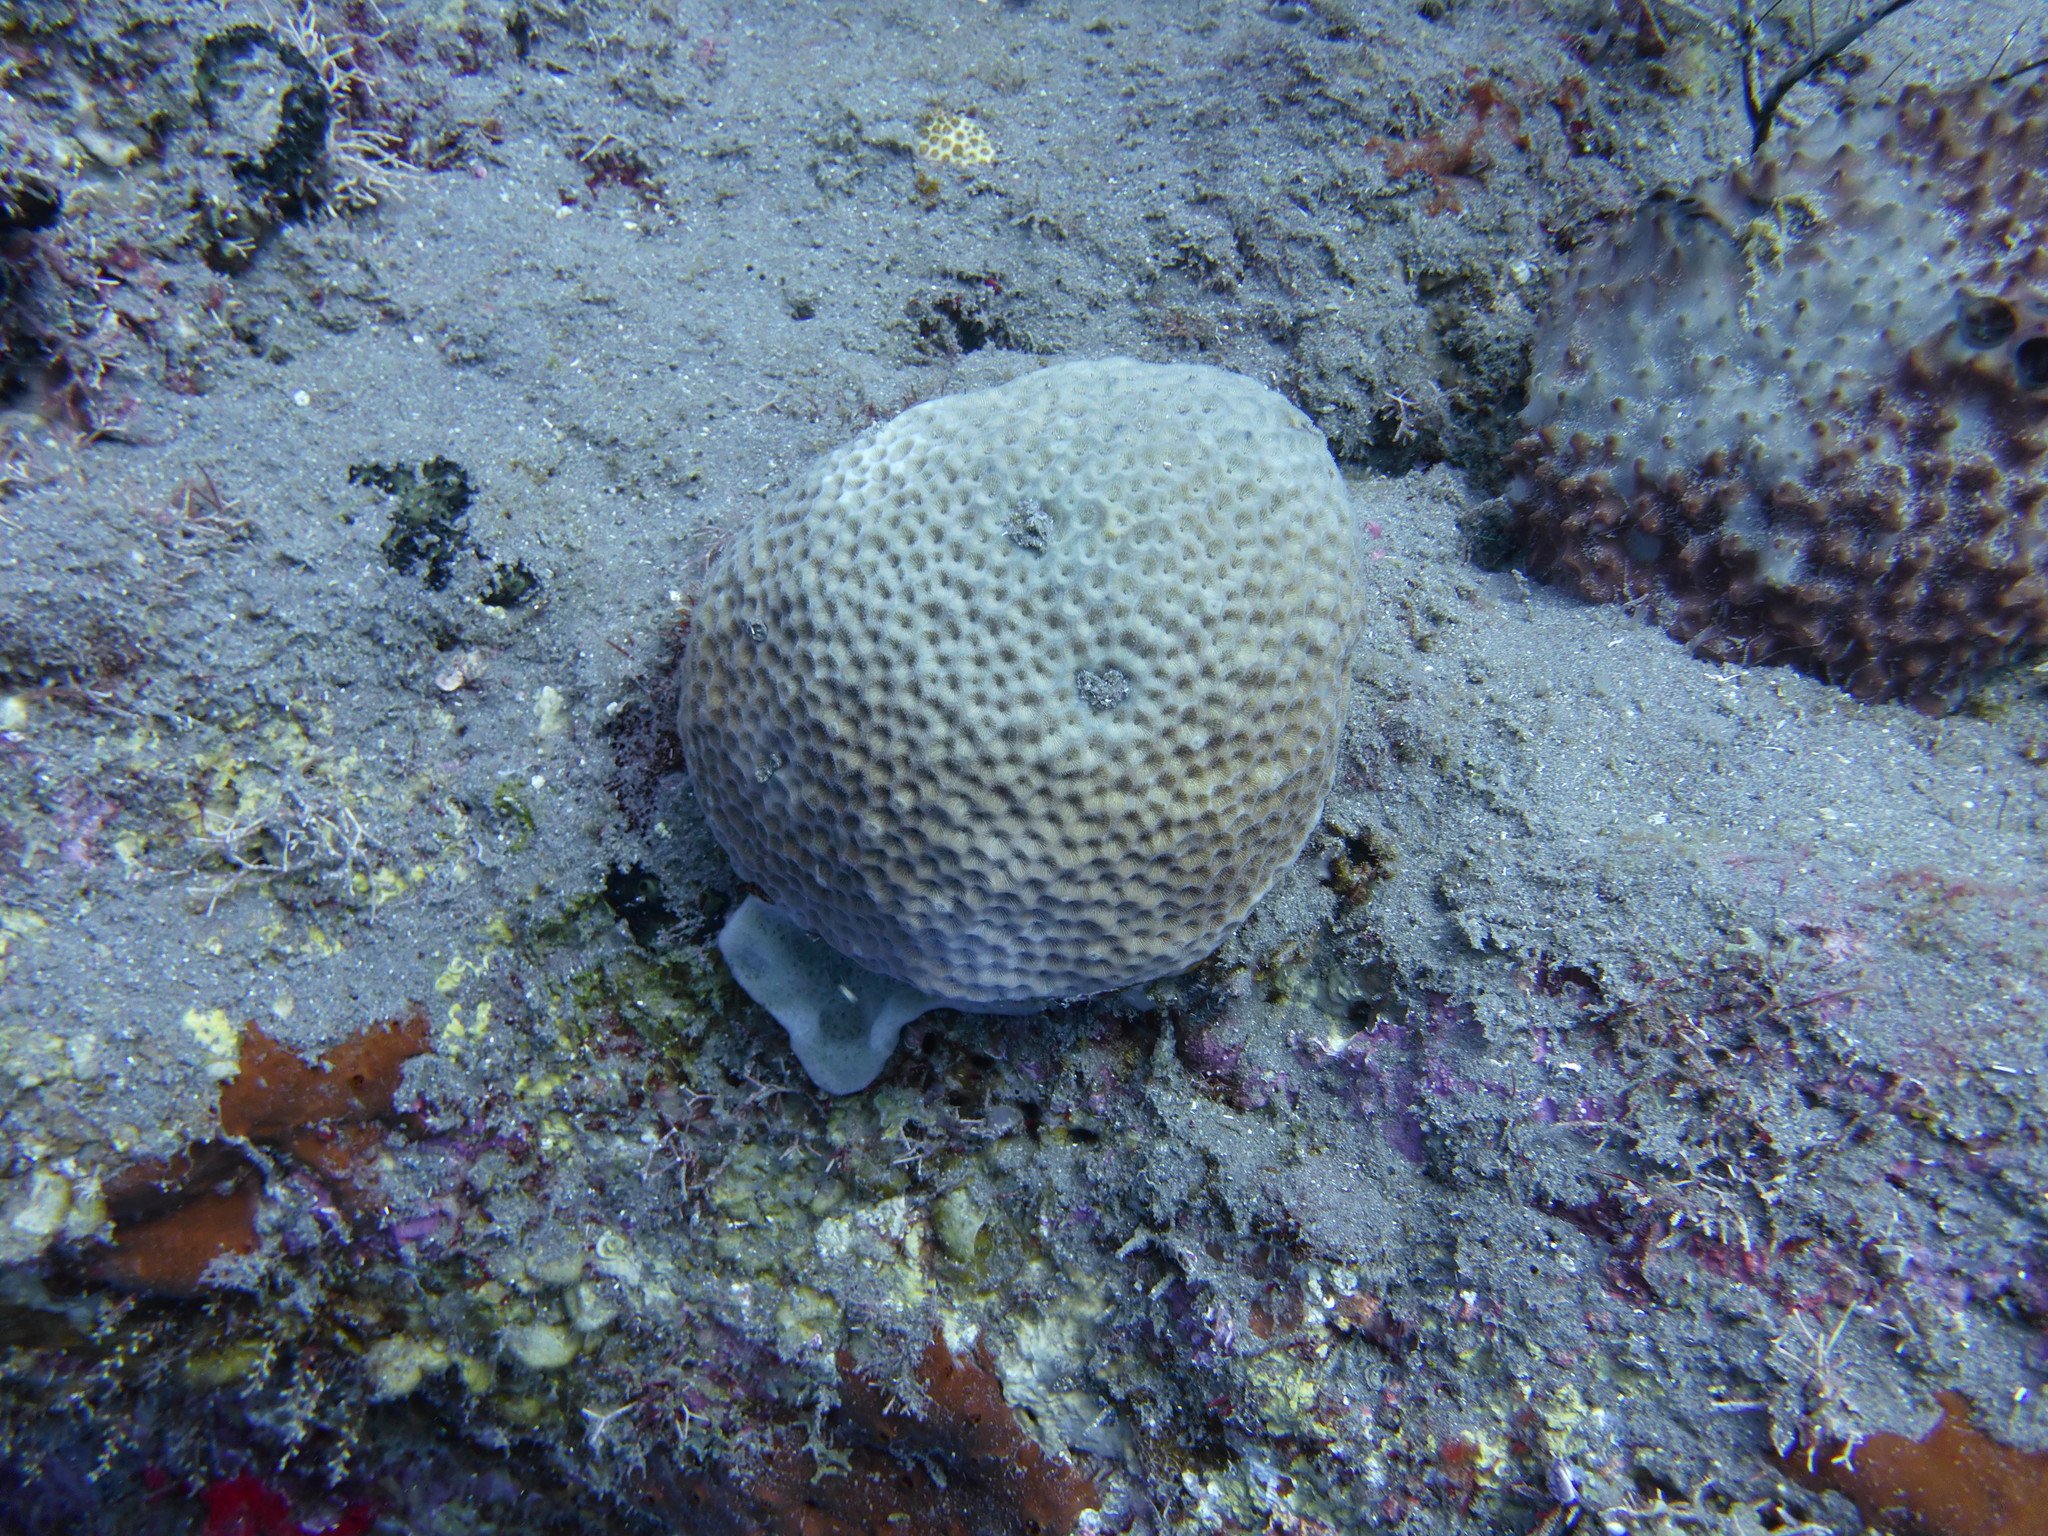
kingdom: Animalia
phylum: Cnidaria
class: Anthozoa
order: Scleractinia
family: Rhizangiidae
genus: Siderastrea
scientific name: Siderastrea siderea
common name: Massive starlet coral
